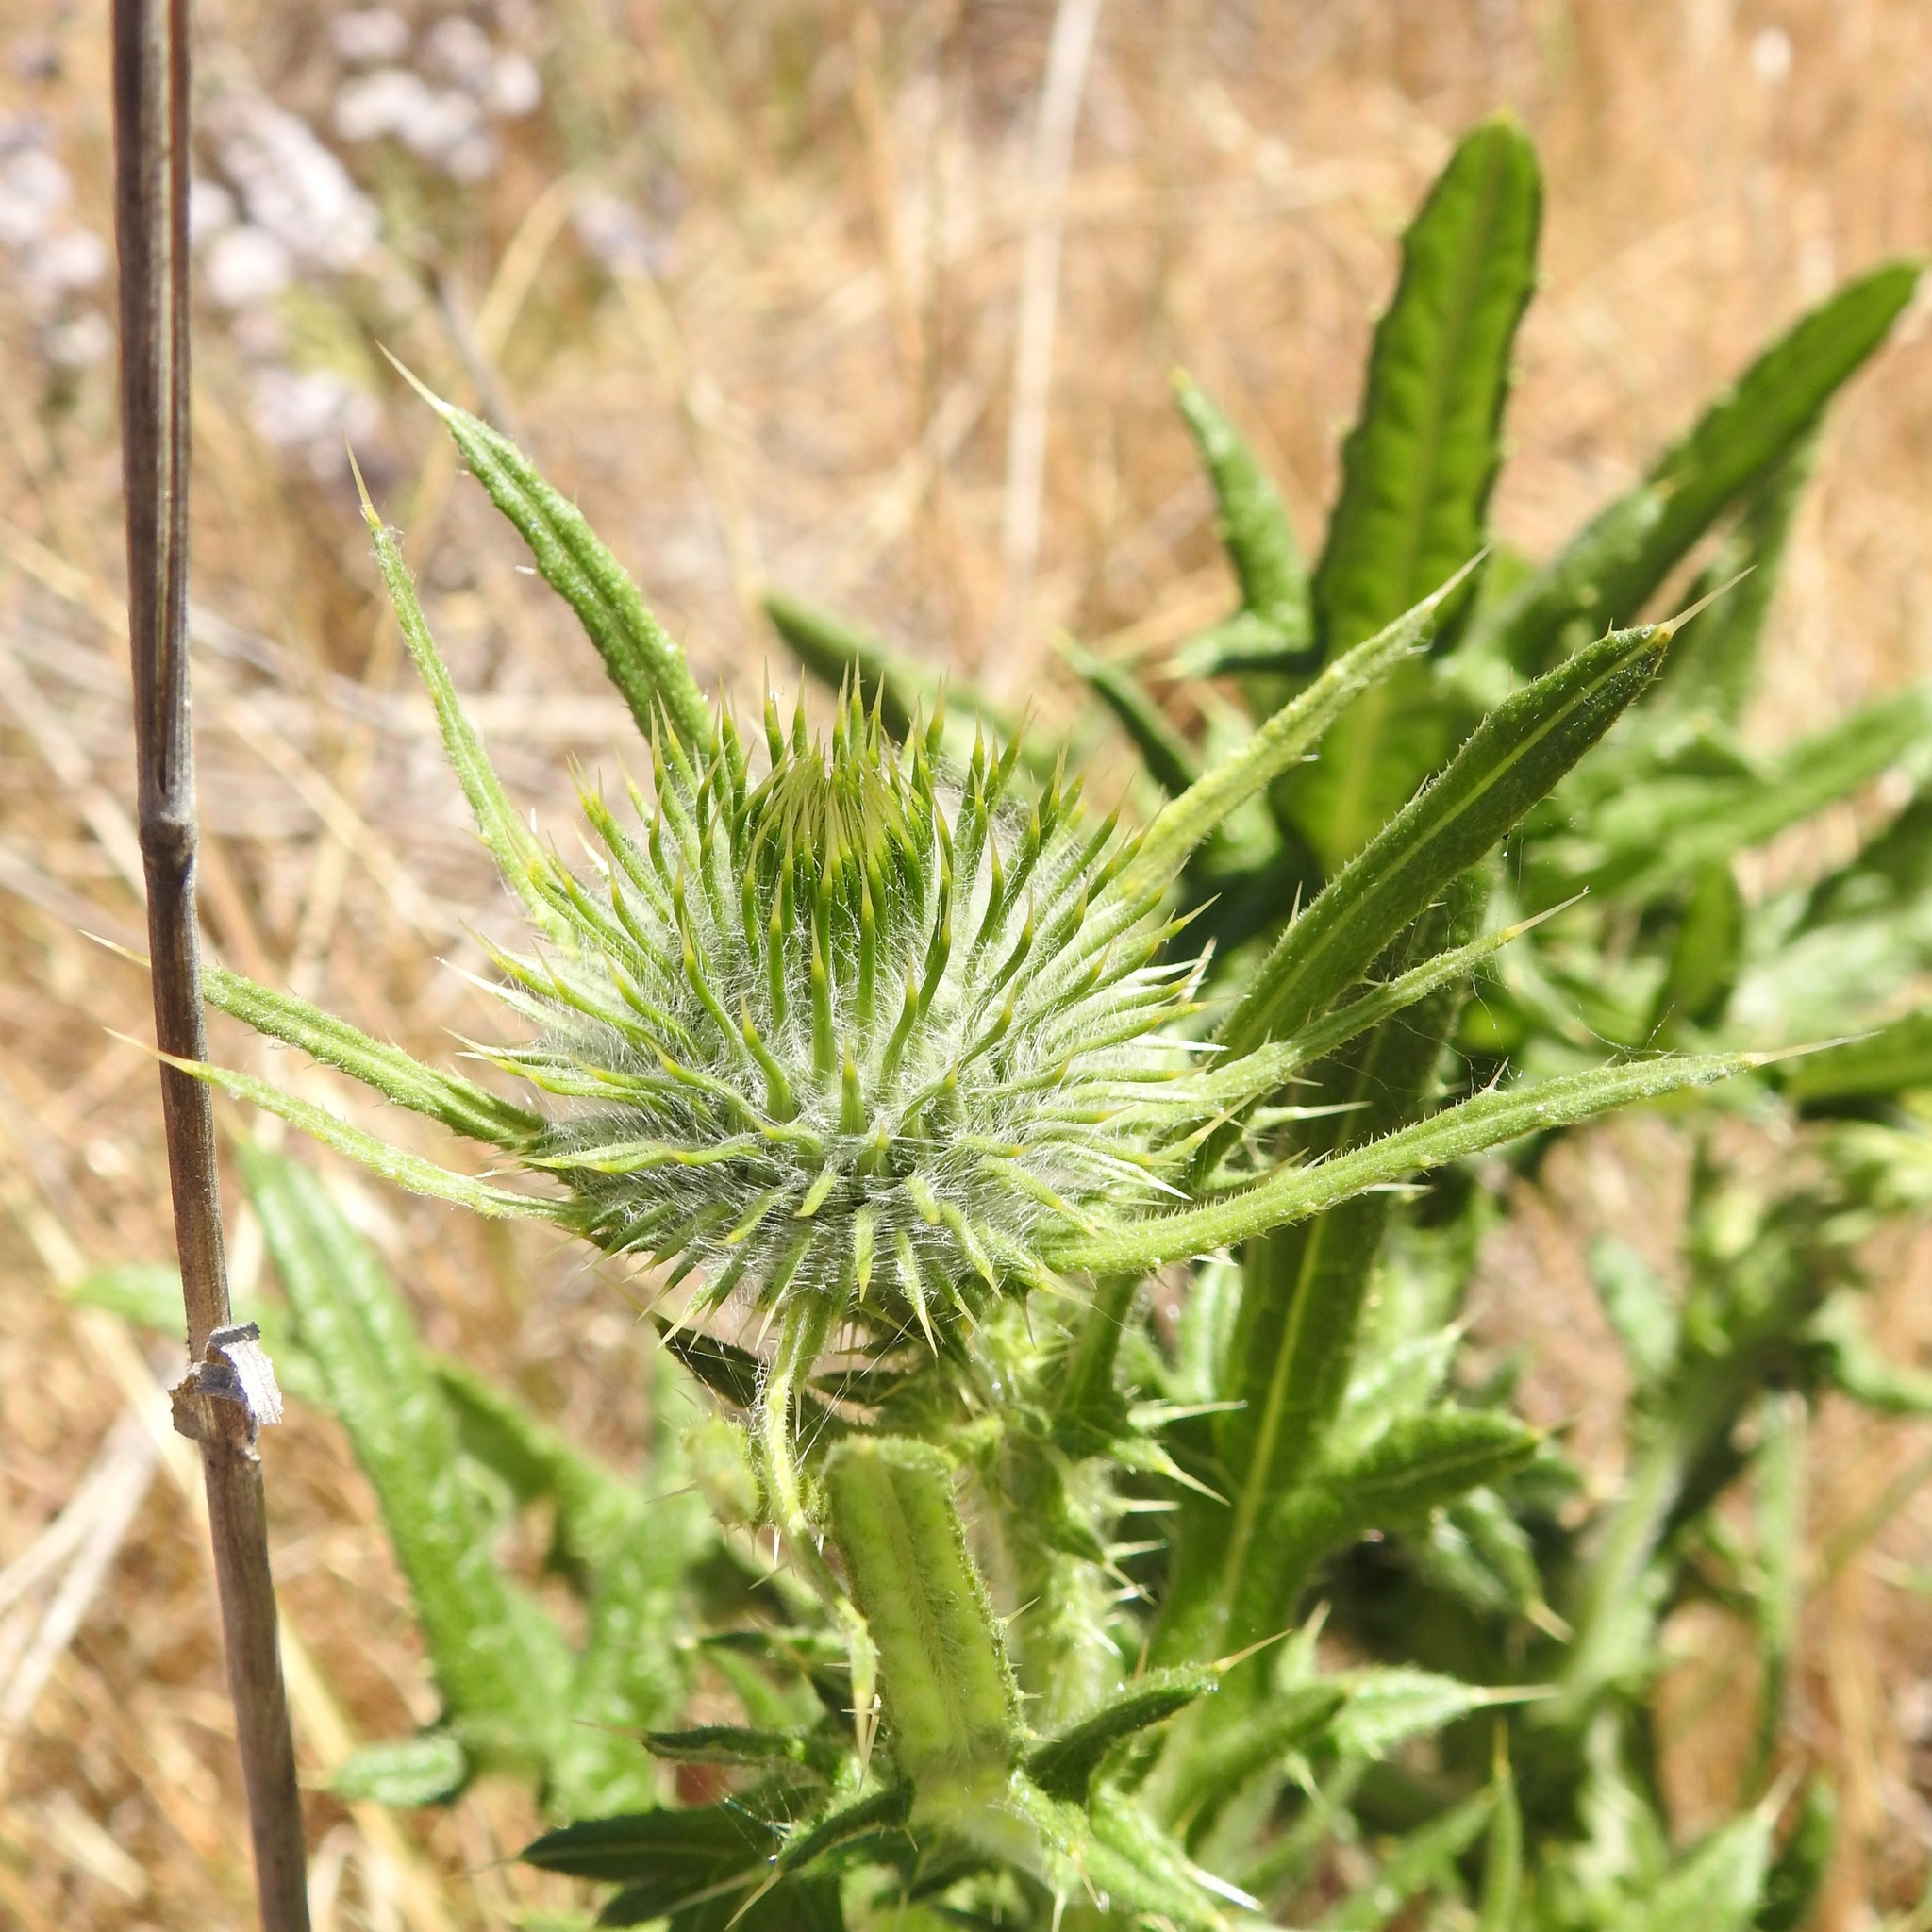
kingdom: Plantae
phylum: Tracheophyta
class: Magnoliopsida
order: Asterales
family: Asteraceae
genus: Cirsium
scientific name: Cirsium vulgare
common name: Bull thistle
